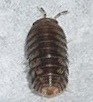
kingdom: Animalia
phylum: Arthropoda
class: Malacostraca
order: Isopoda
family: Armadillidae
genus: Venezillo
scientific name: Venezillo parvus
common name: Pillbug
